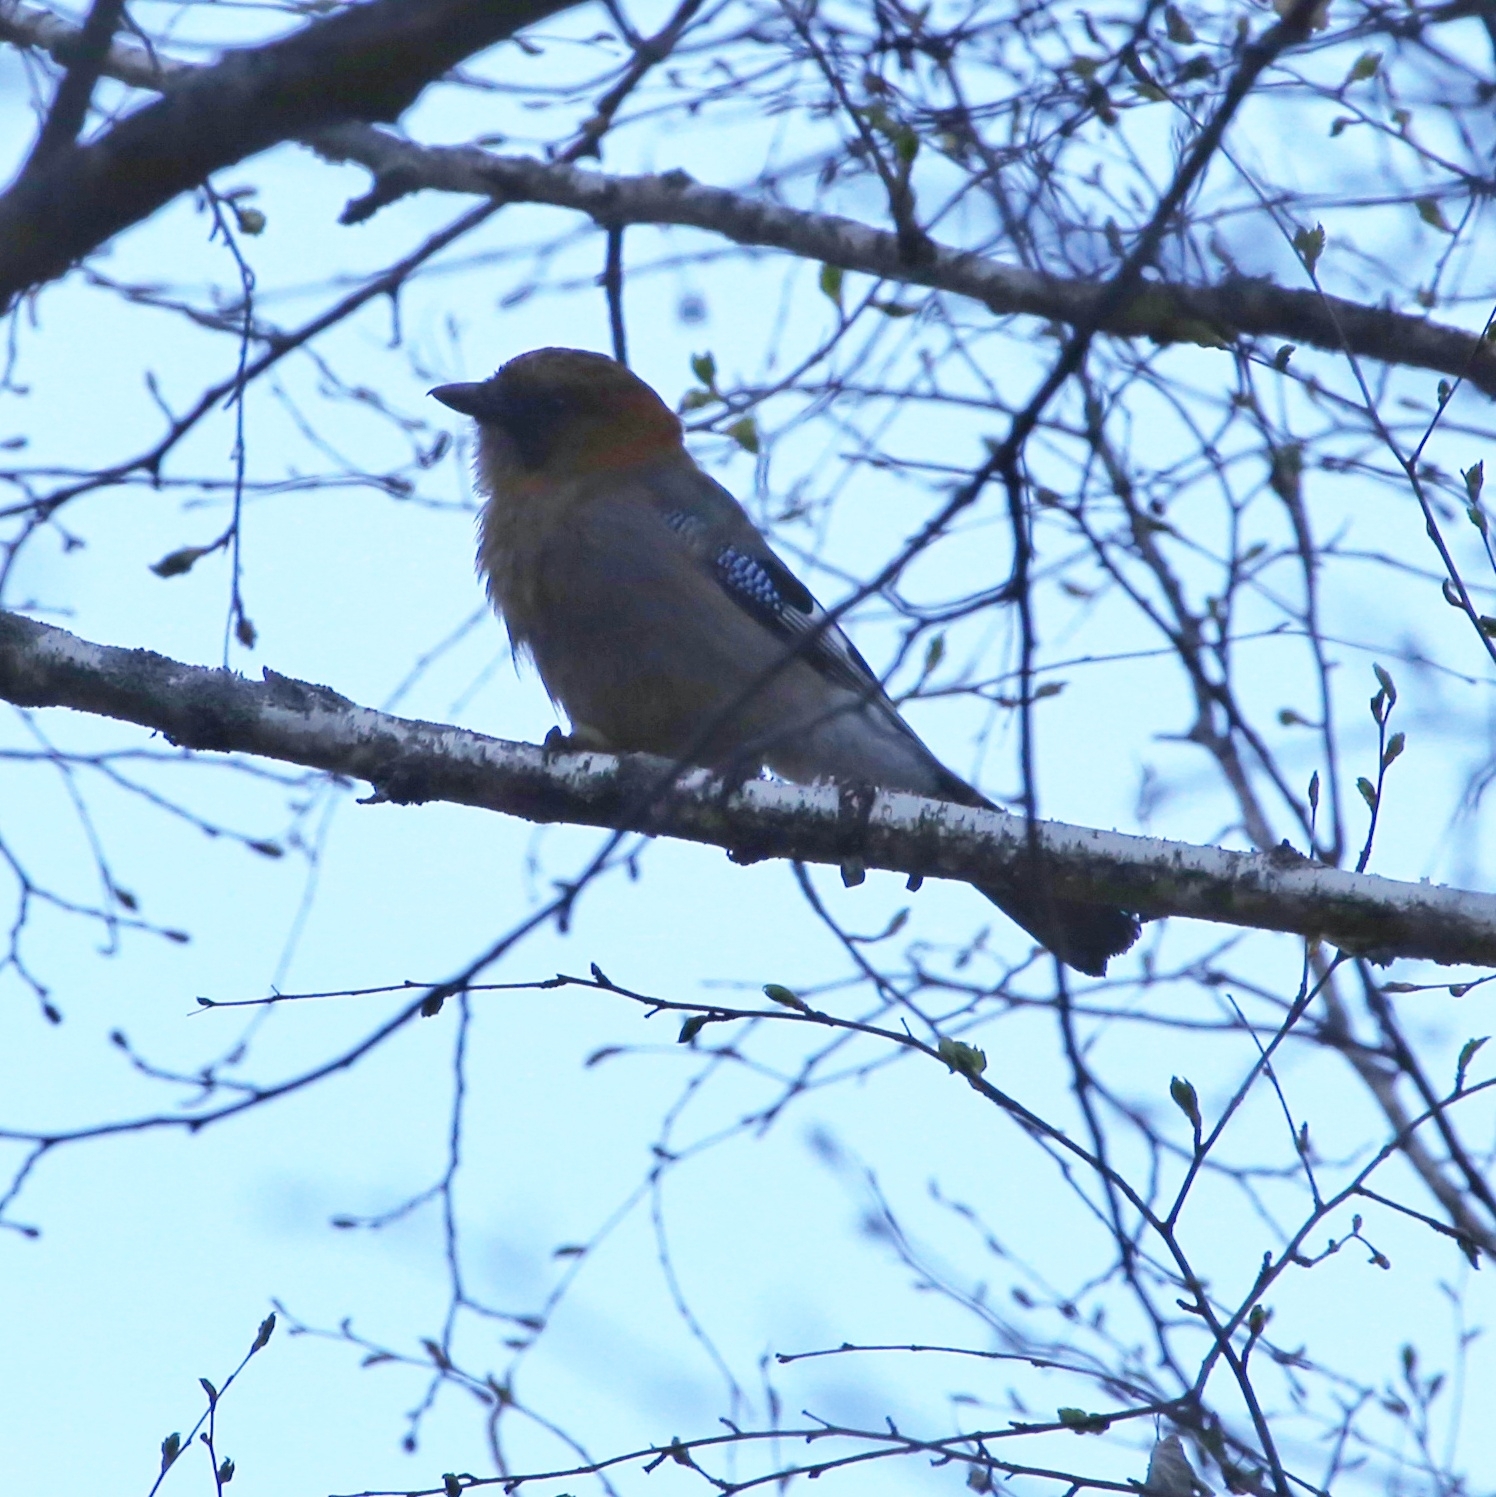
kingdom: Animalia
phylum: Chordata
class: Aves
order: Passeriformes
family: Corvidae
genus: Garrulus
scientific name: Garrulus glandarius
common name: Eurasian jay
